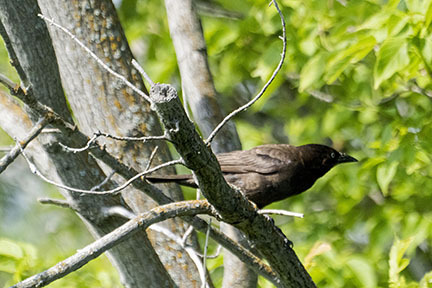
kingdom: Animalia
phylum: Chordata
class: Aves
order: Passeriformes
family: Icteridae
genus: Quiscalus
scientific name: Quiscalus quiscula
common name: Common grackle
